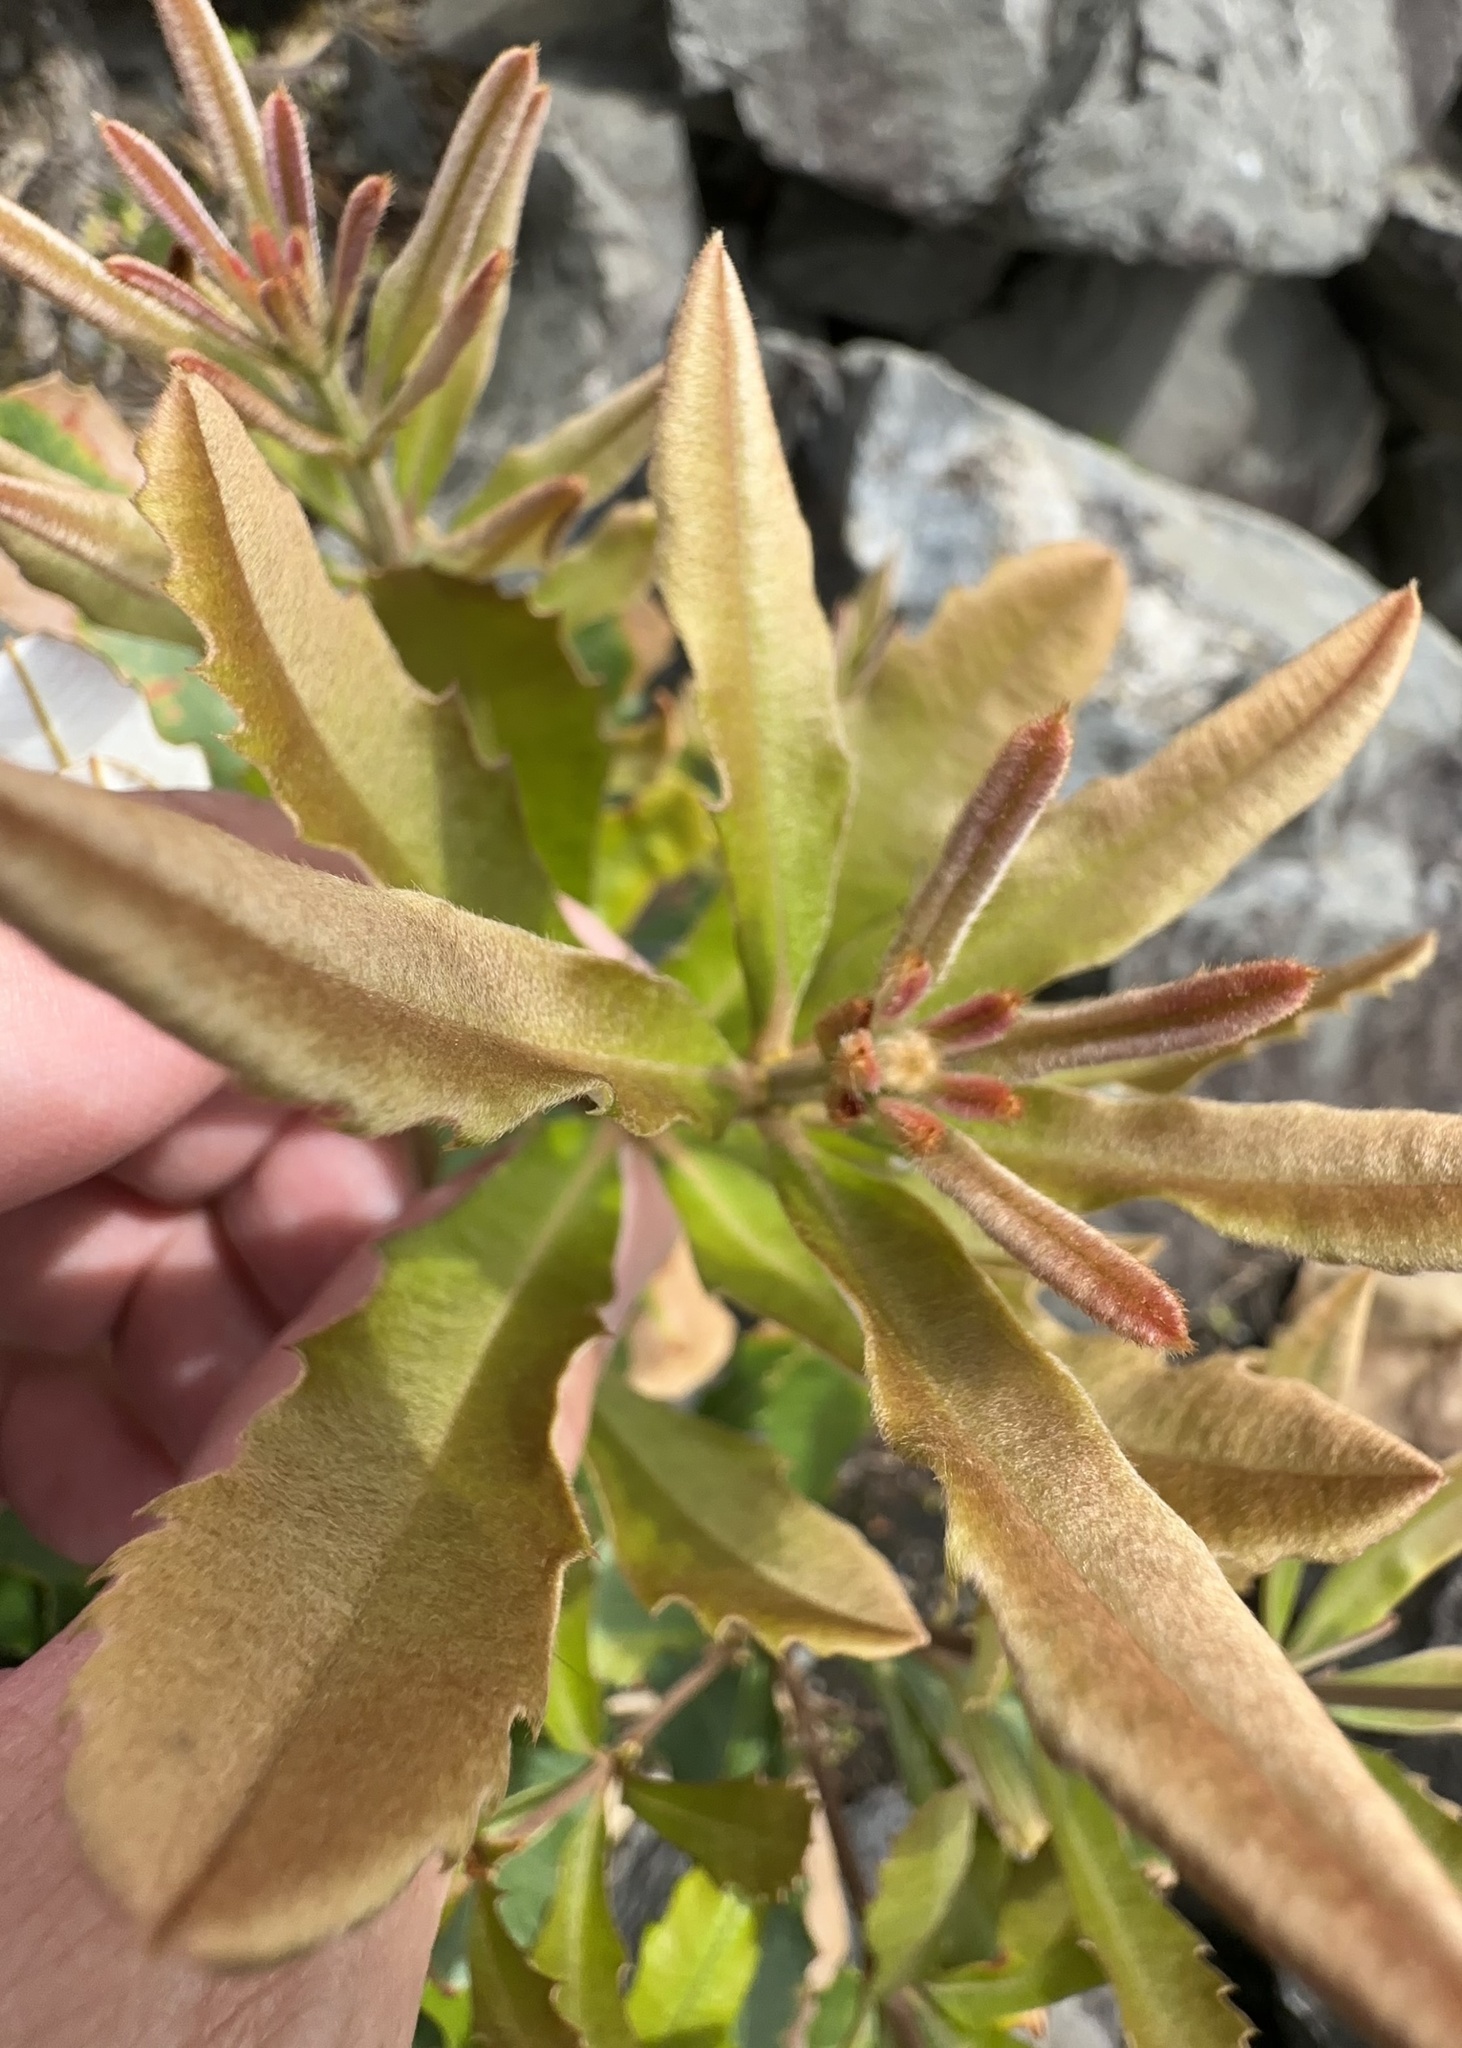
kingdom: Plantae
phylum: Tracheophyta
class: Magnoliopsida
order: Proteales
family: Proteaceae
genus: Banksia
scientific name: Banksia integrifolia
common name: White-honeysuckle
